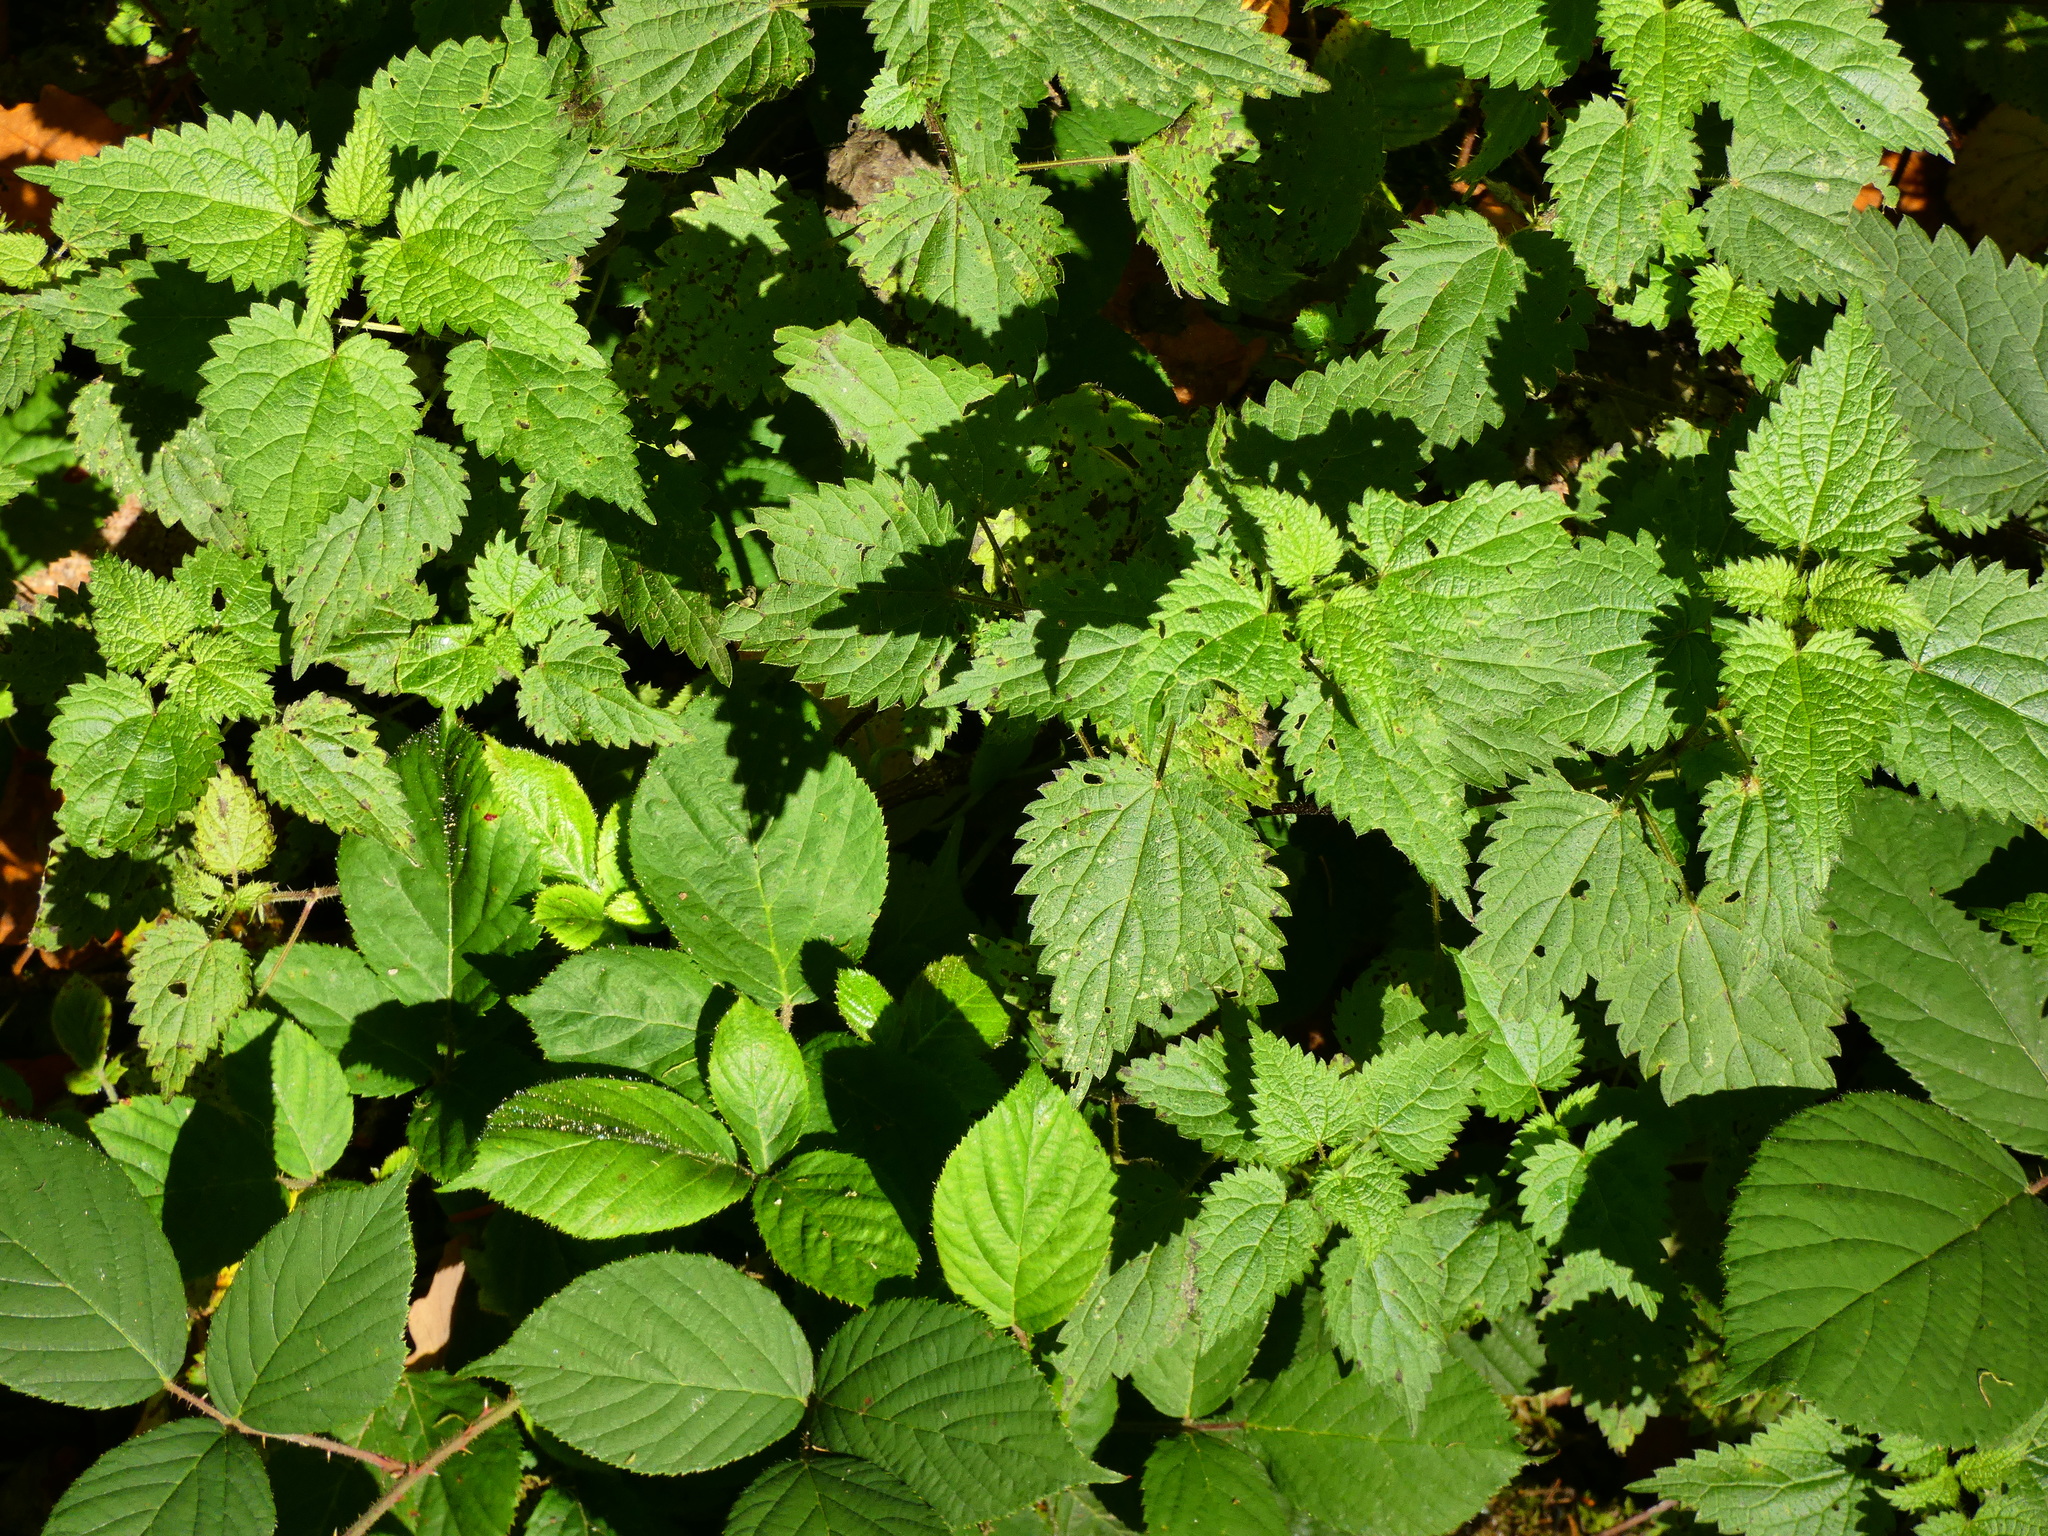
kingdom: Plantae
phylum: Tracheophyta
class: Magnoliopsida
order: Rosales
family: Urticaceae
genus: Urtica
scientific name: Urtica dioica
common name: Common nettle
